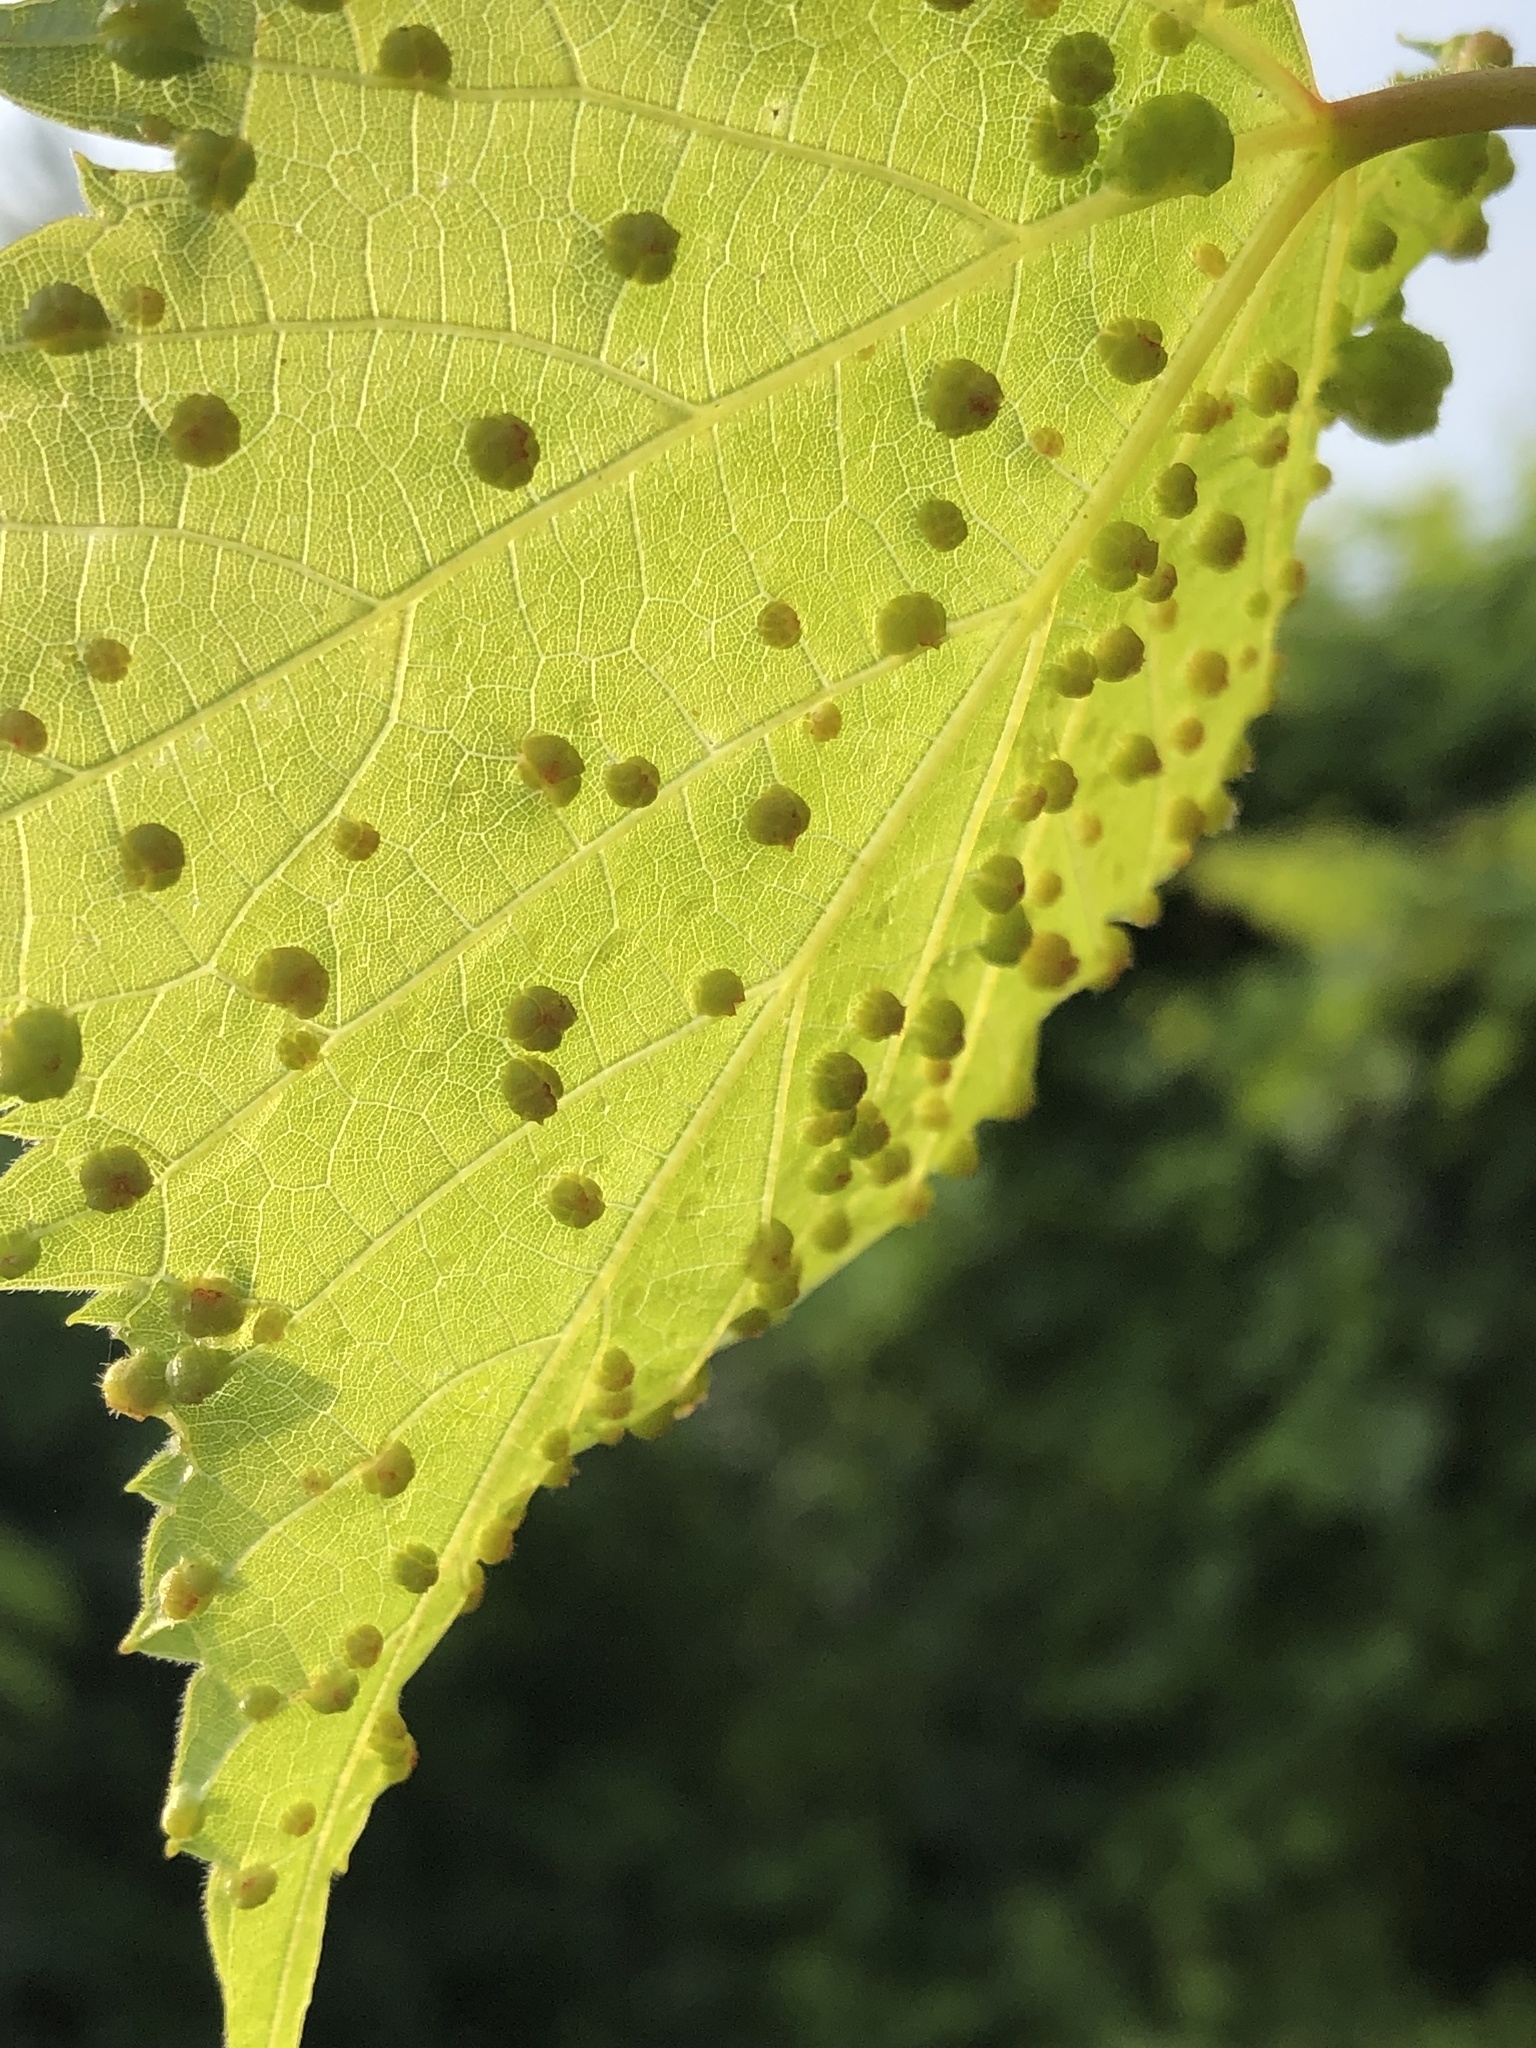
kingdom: Animalia
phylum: Arthropoda
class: Insecta
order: Hemiptera
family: Phylloxeridae
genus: Daktulosphaira
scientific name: Daktulosphaira vitifoliae
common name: Grape phylloxera
